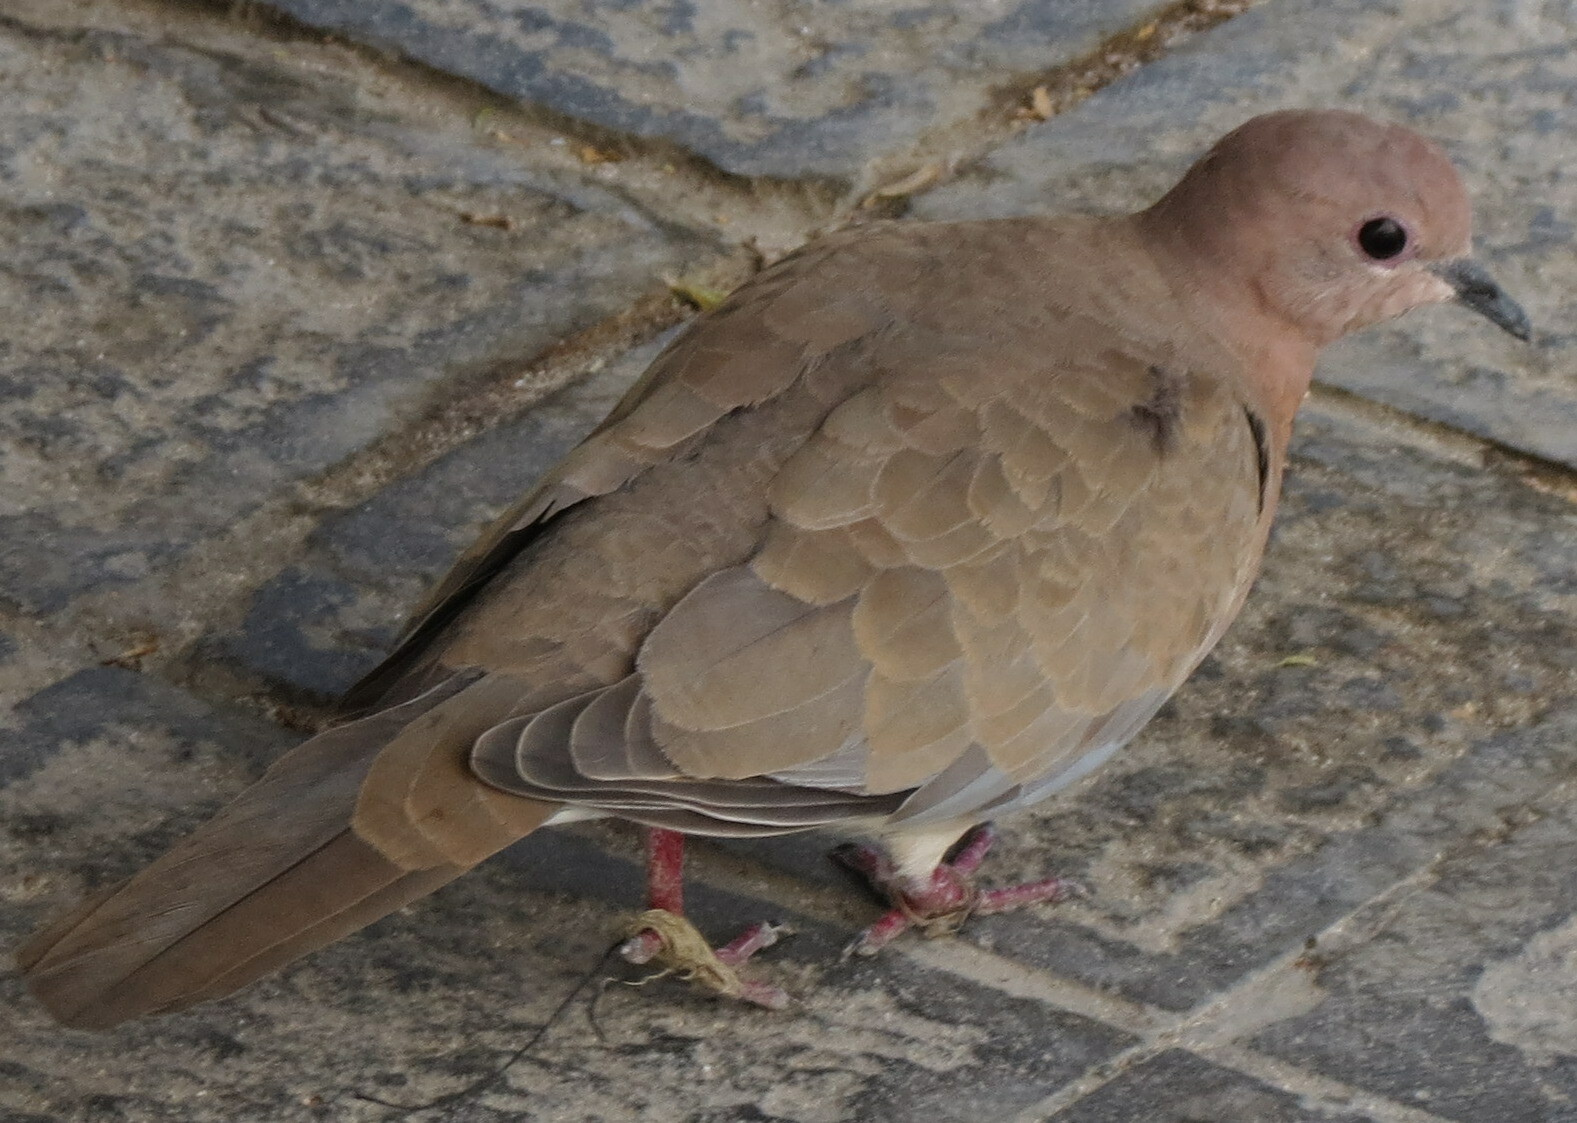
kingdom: Animalia
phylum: Chordata
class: Aves
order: Columbiformes
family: Columbidae
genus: Spilopelia
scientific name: Spilopelia senegalensis
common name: Laughing dove
